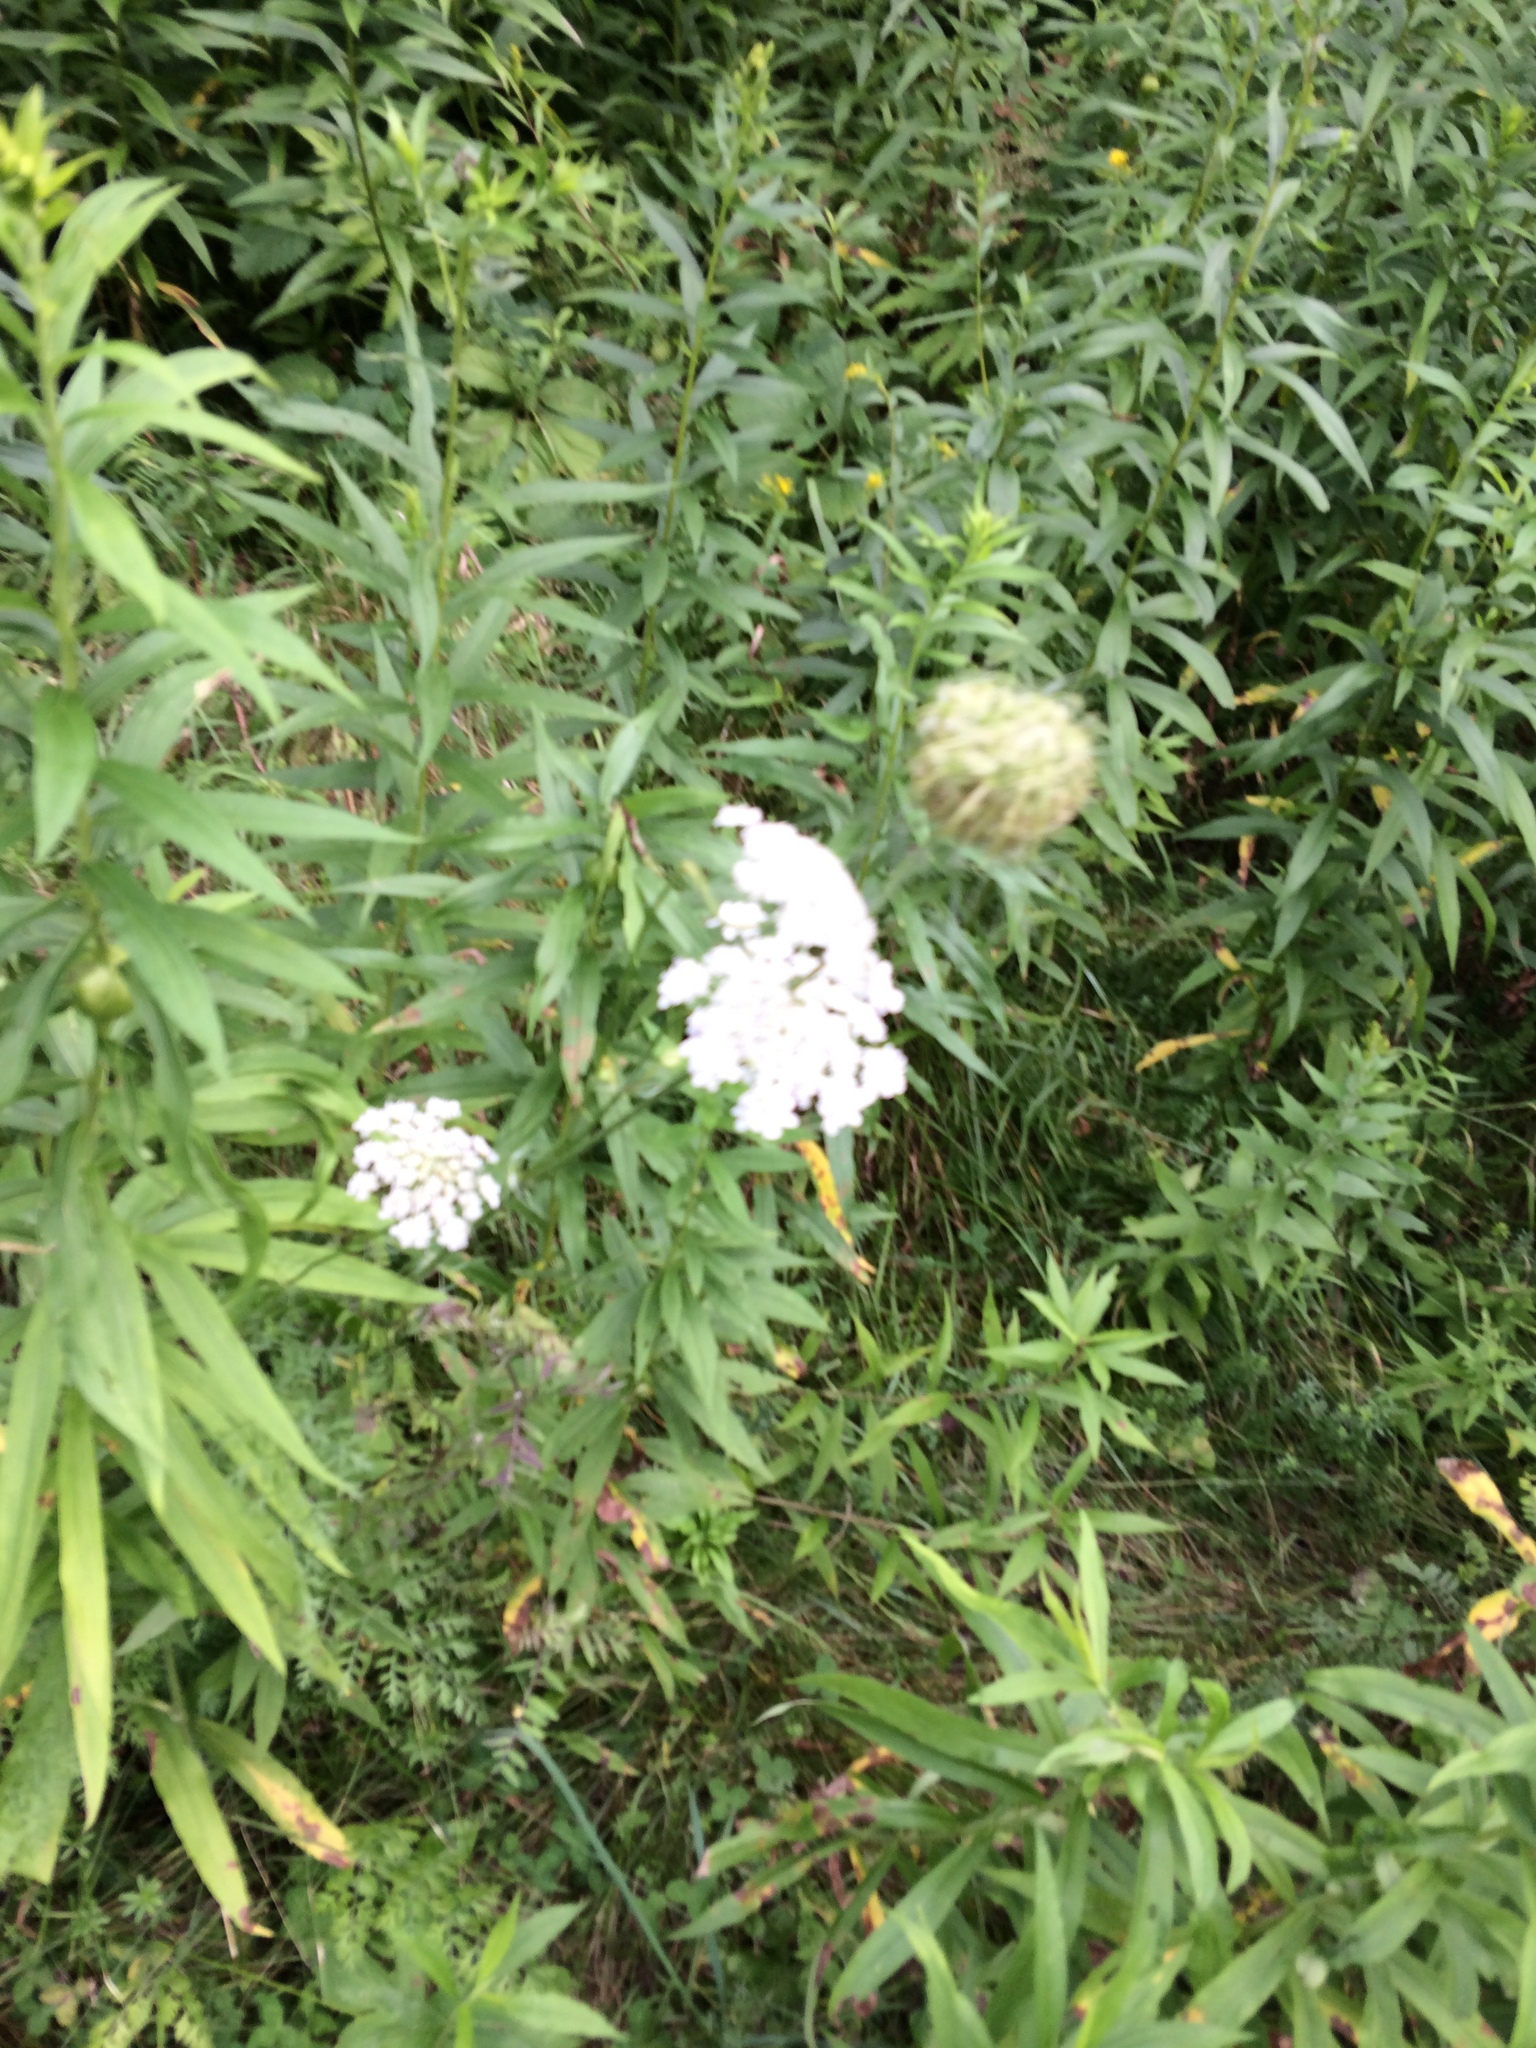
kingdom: Plantae
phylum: Tracheophyta
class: Magnoliopsida
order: Apiales
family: Apiaceae
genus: Daucus
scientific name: Daucus carota
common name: Wild carrot
